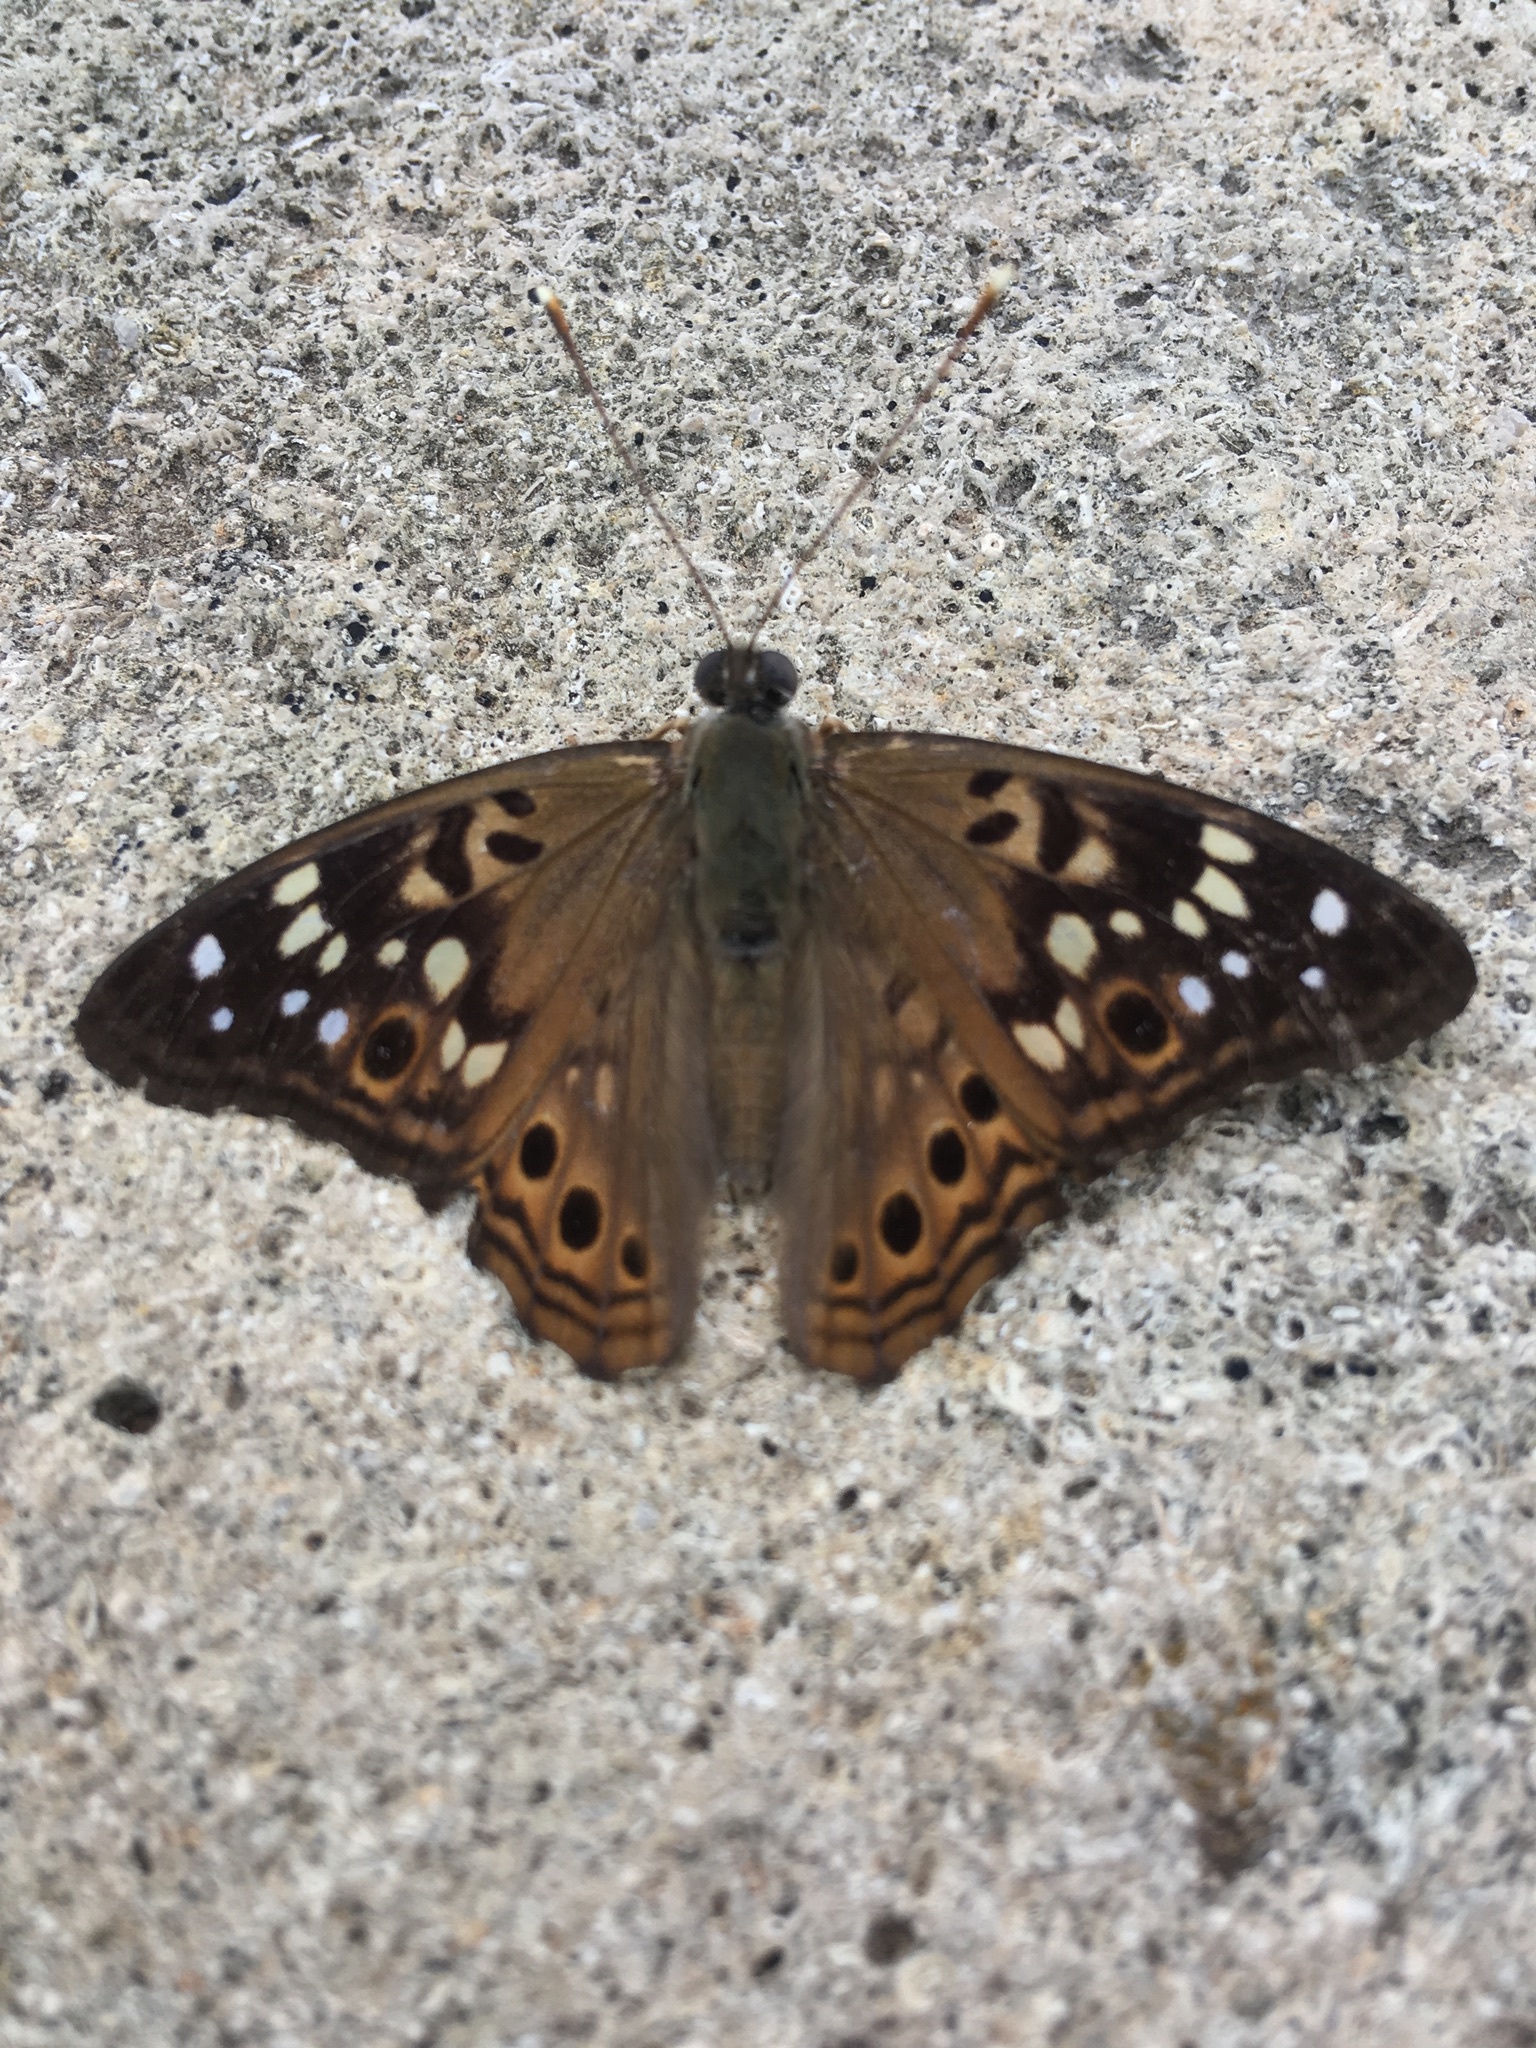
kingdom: Animalia
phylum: Arthropoda
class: Insecta
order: Lepidoptera
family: Nymphalidae
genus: Asterocampa
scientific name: Asterocampa celtis
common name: Hackberry emperor
